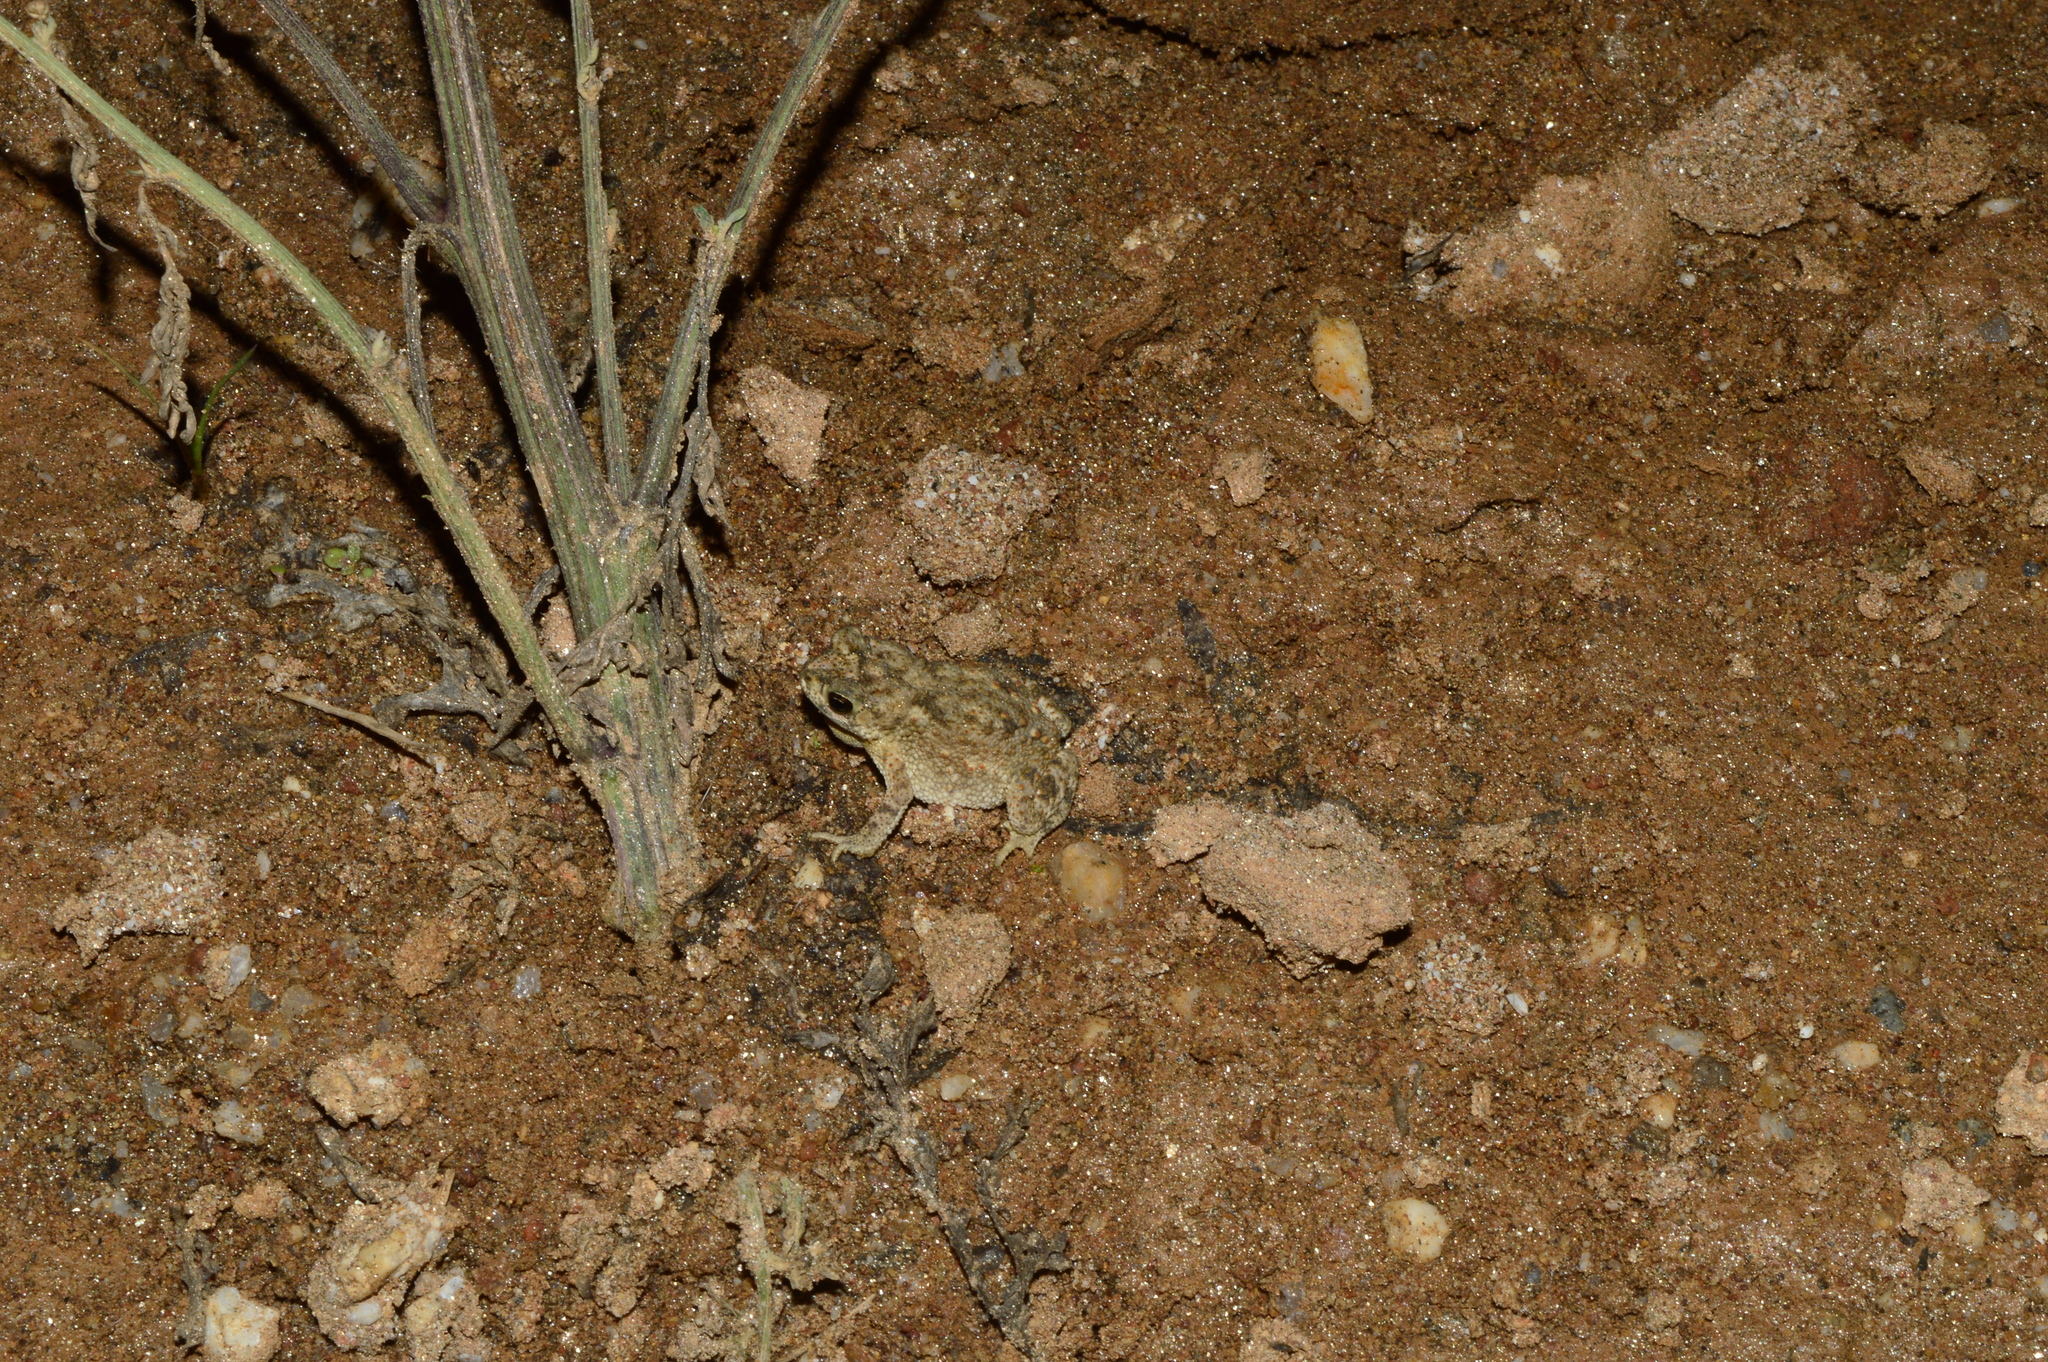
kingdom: Animalia
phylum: Chordata
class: Amphibia
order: Anura
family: Bufonidae
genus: Duttaphrynus
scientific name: Duttaphrynus scaber
